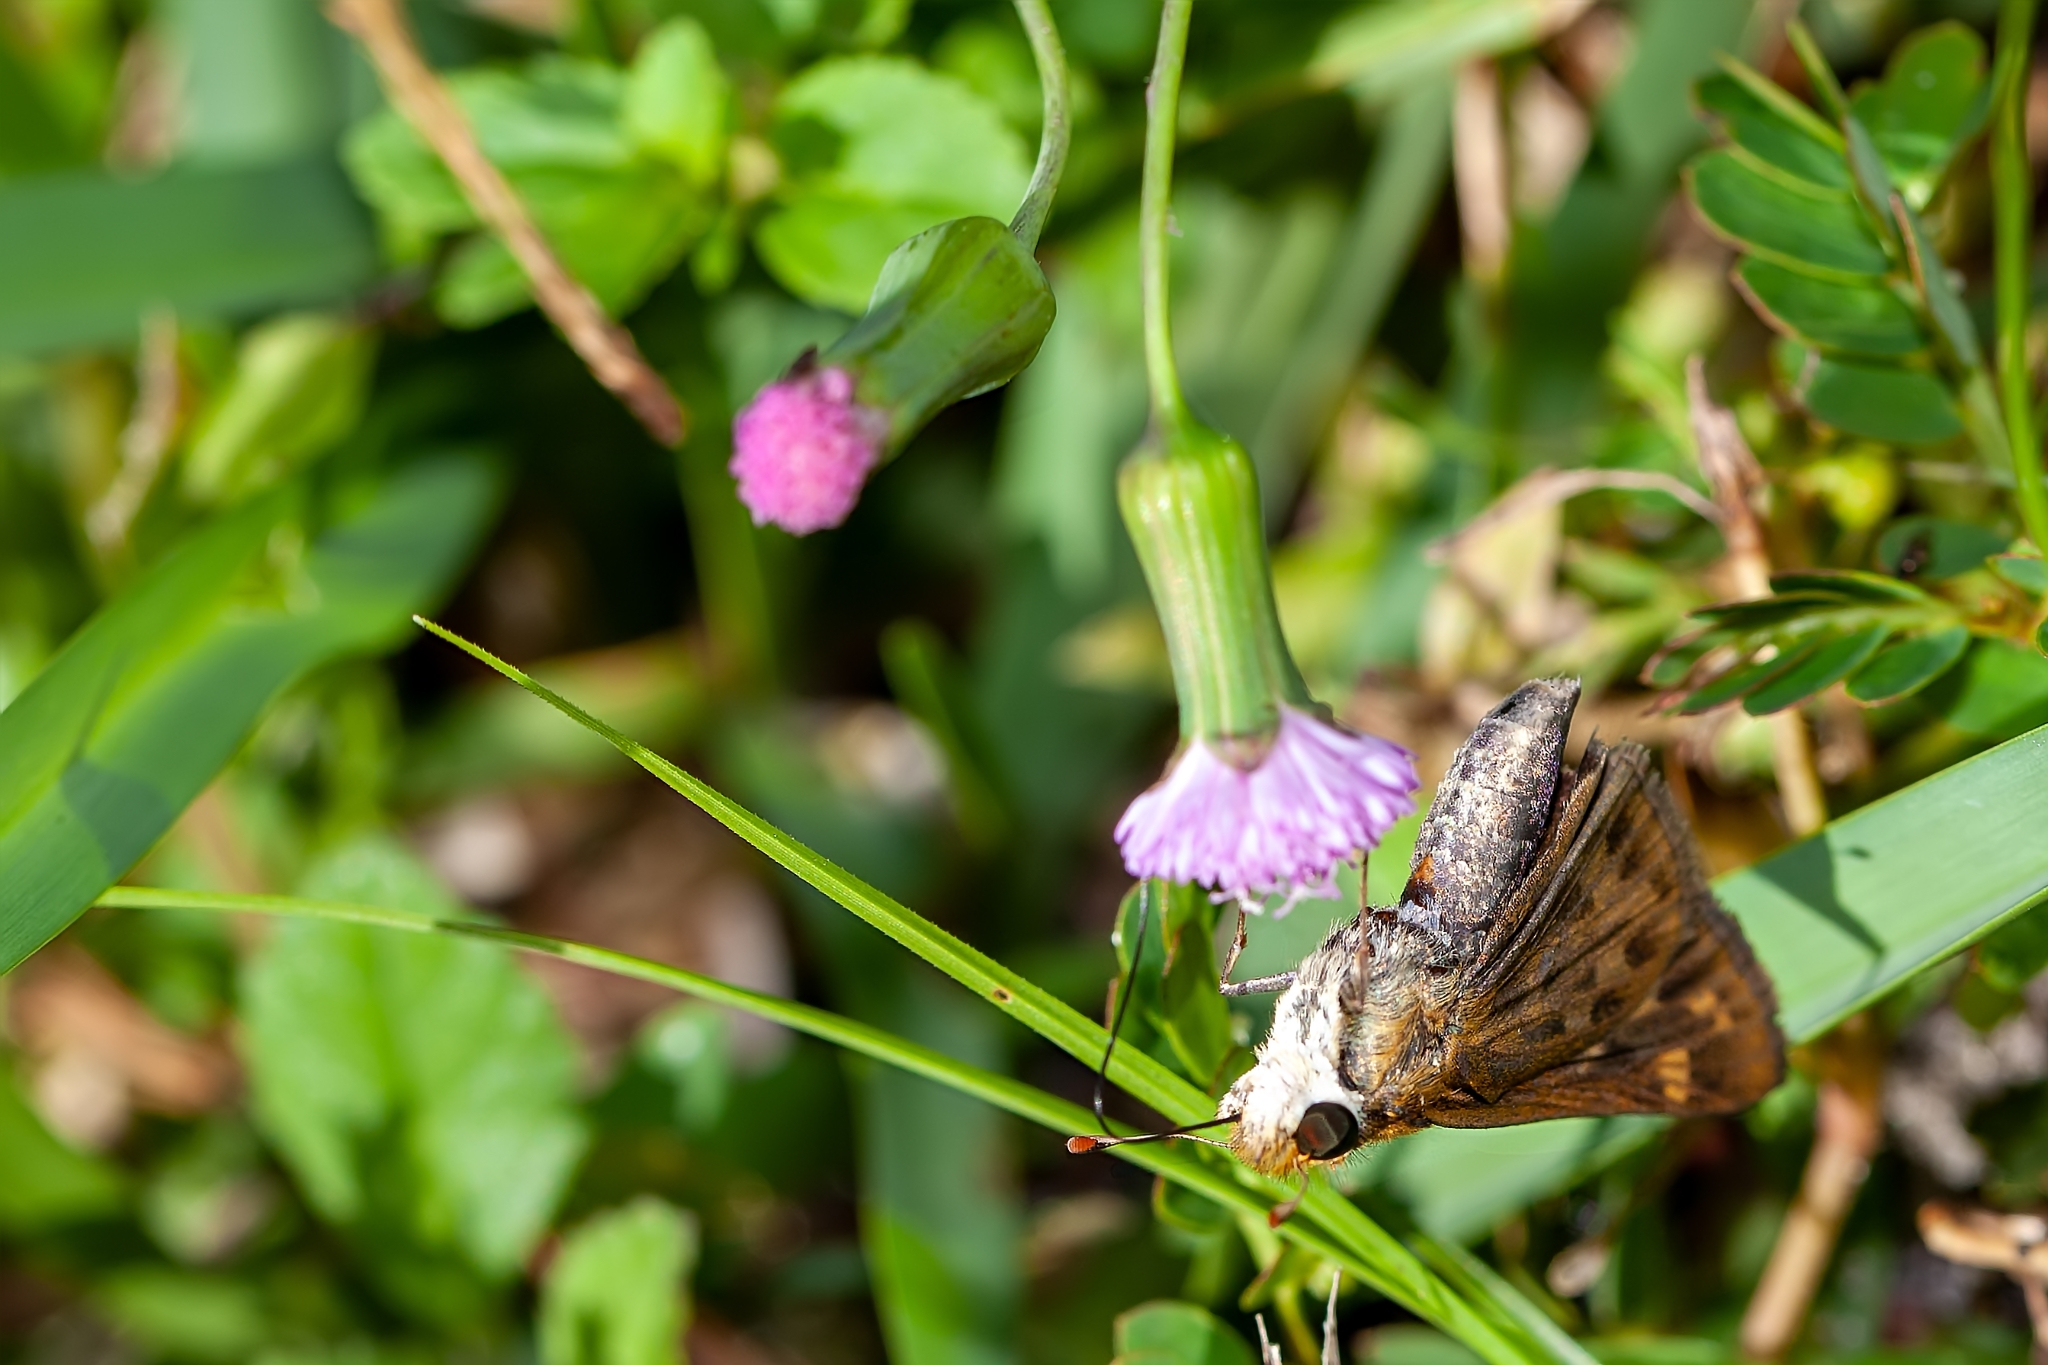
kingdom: Animalia
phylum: Arthropoda
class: Insecta
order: Lepidoptera
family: Hesperiidae
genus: Hylephila
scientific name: Hylephila phyleus
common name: Fiery skipper
